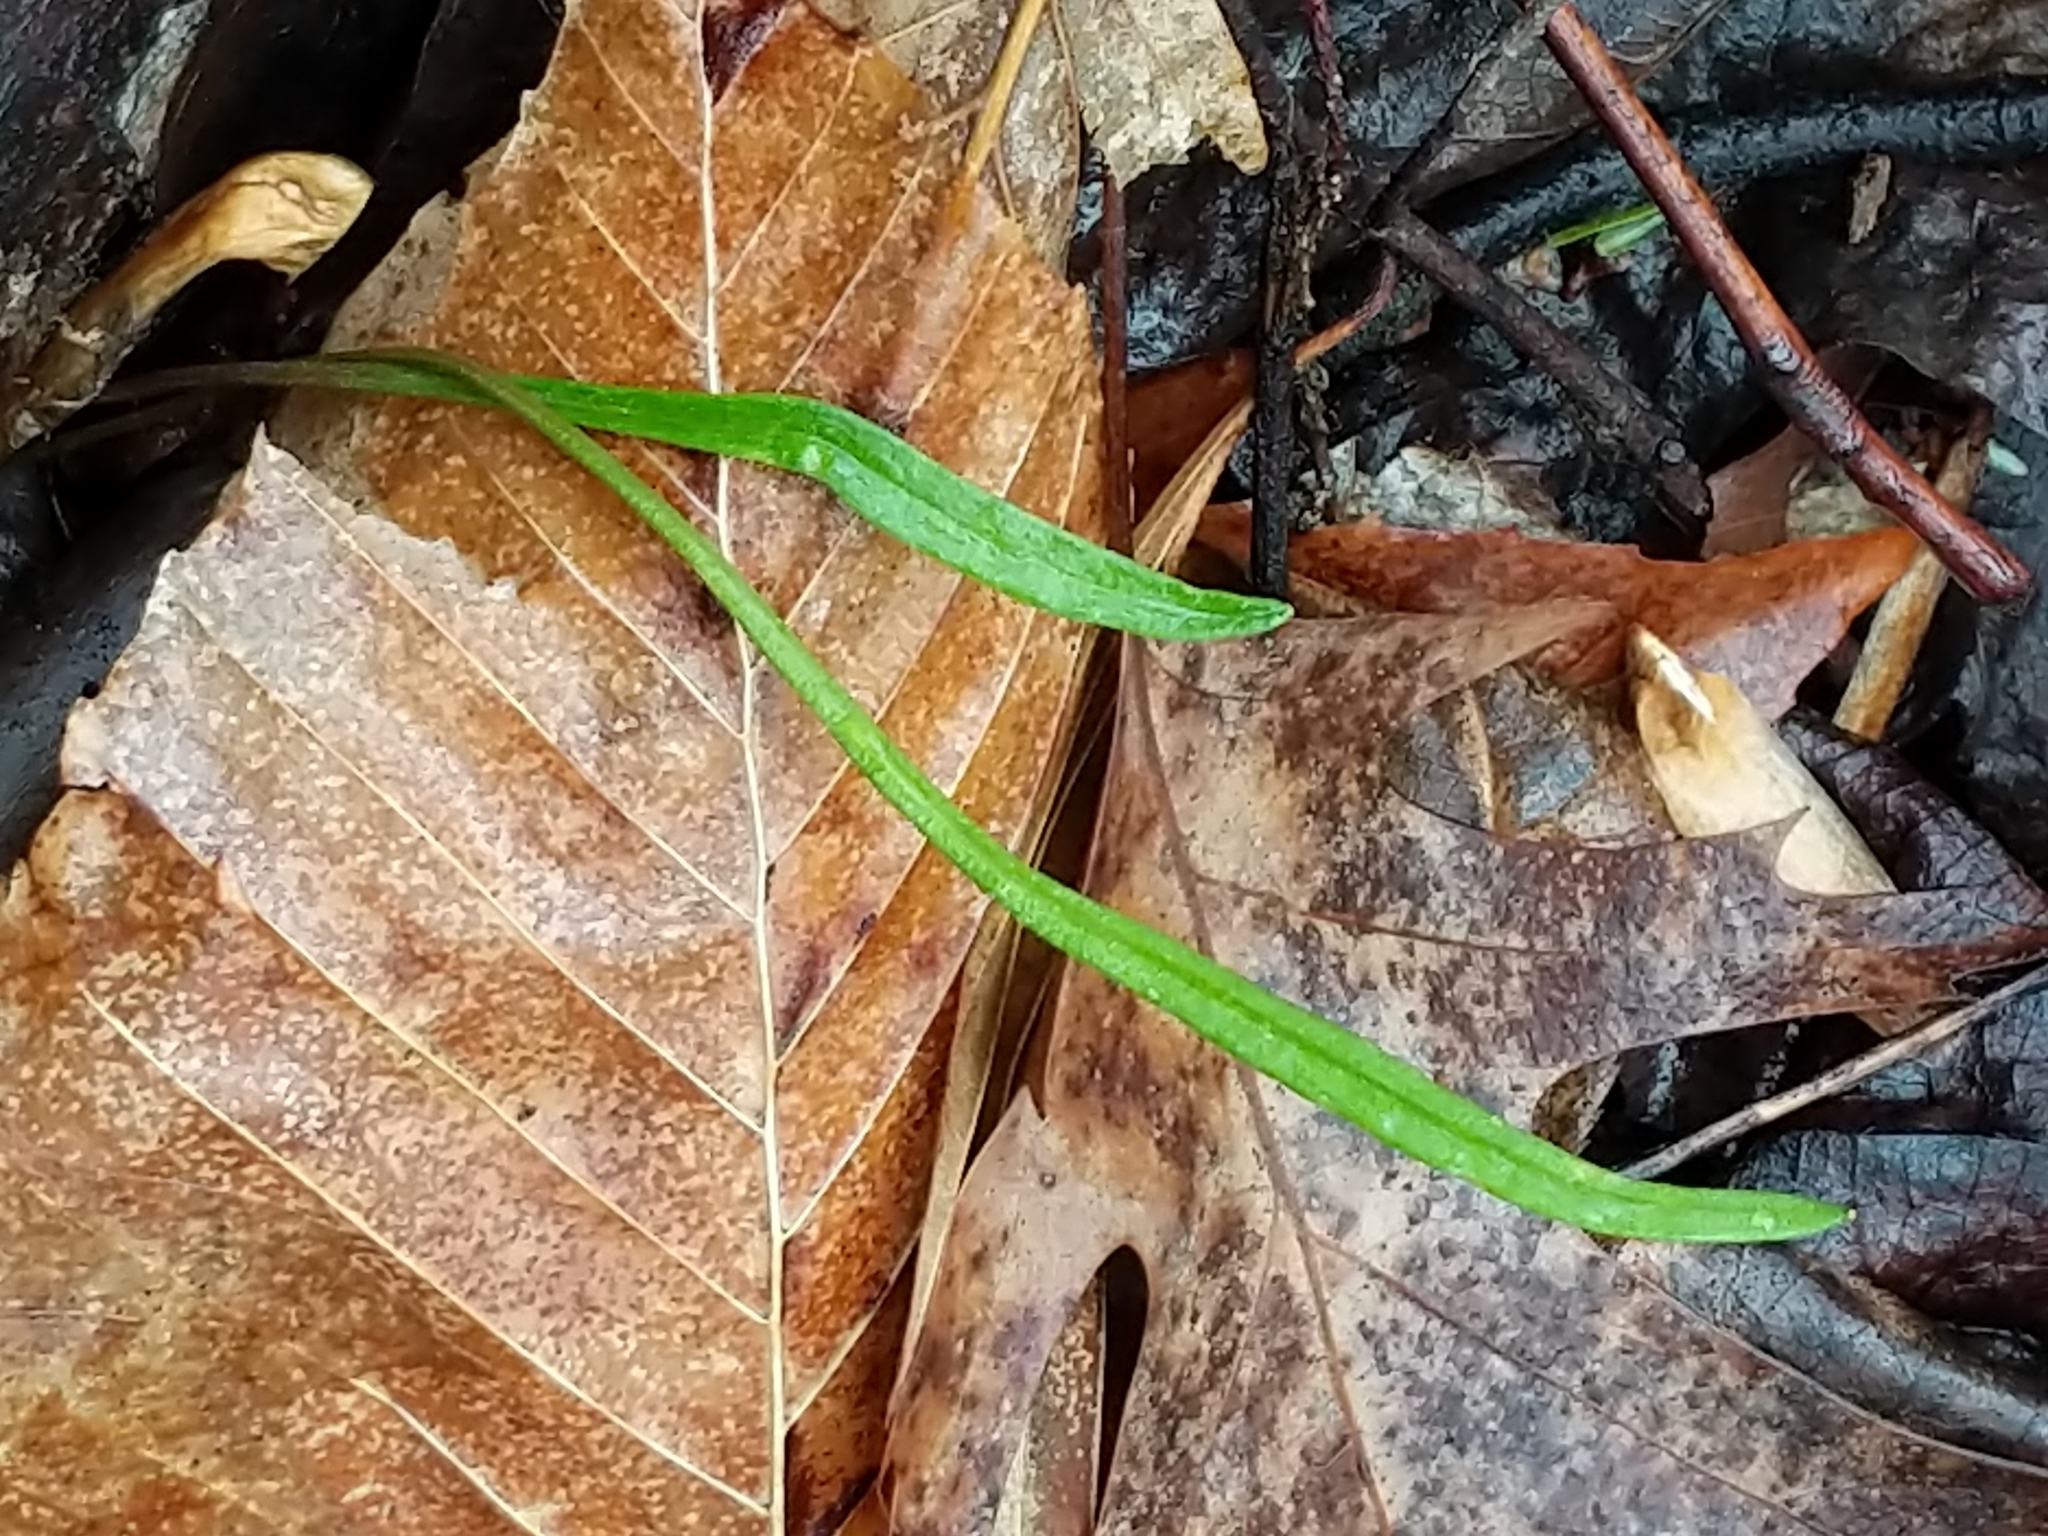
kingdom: Plantae
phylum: Tracheophyta
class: Magnoliopsida
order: Caryophyllales
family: Montiaceae
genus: Claytonia
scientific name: Claytonia virginica
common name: Virginia springbeauty
